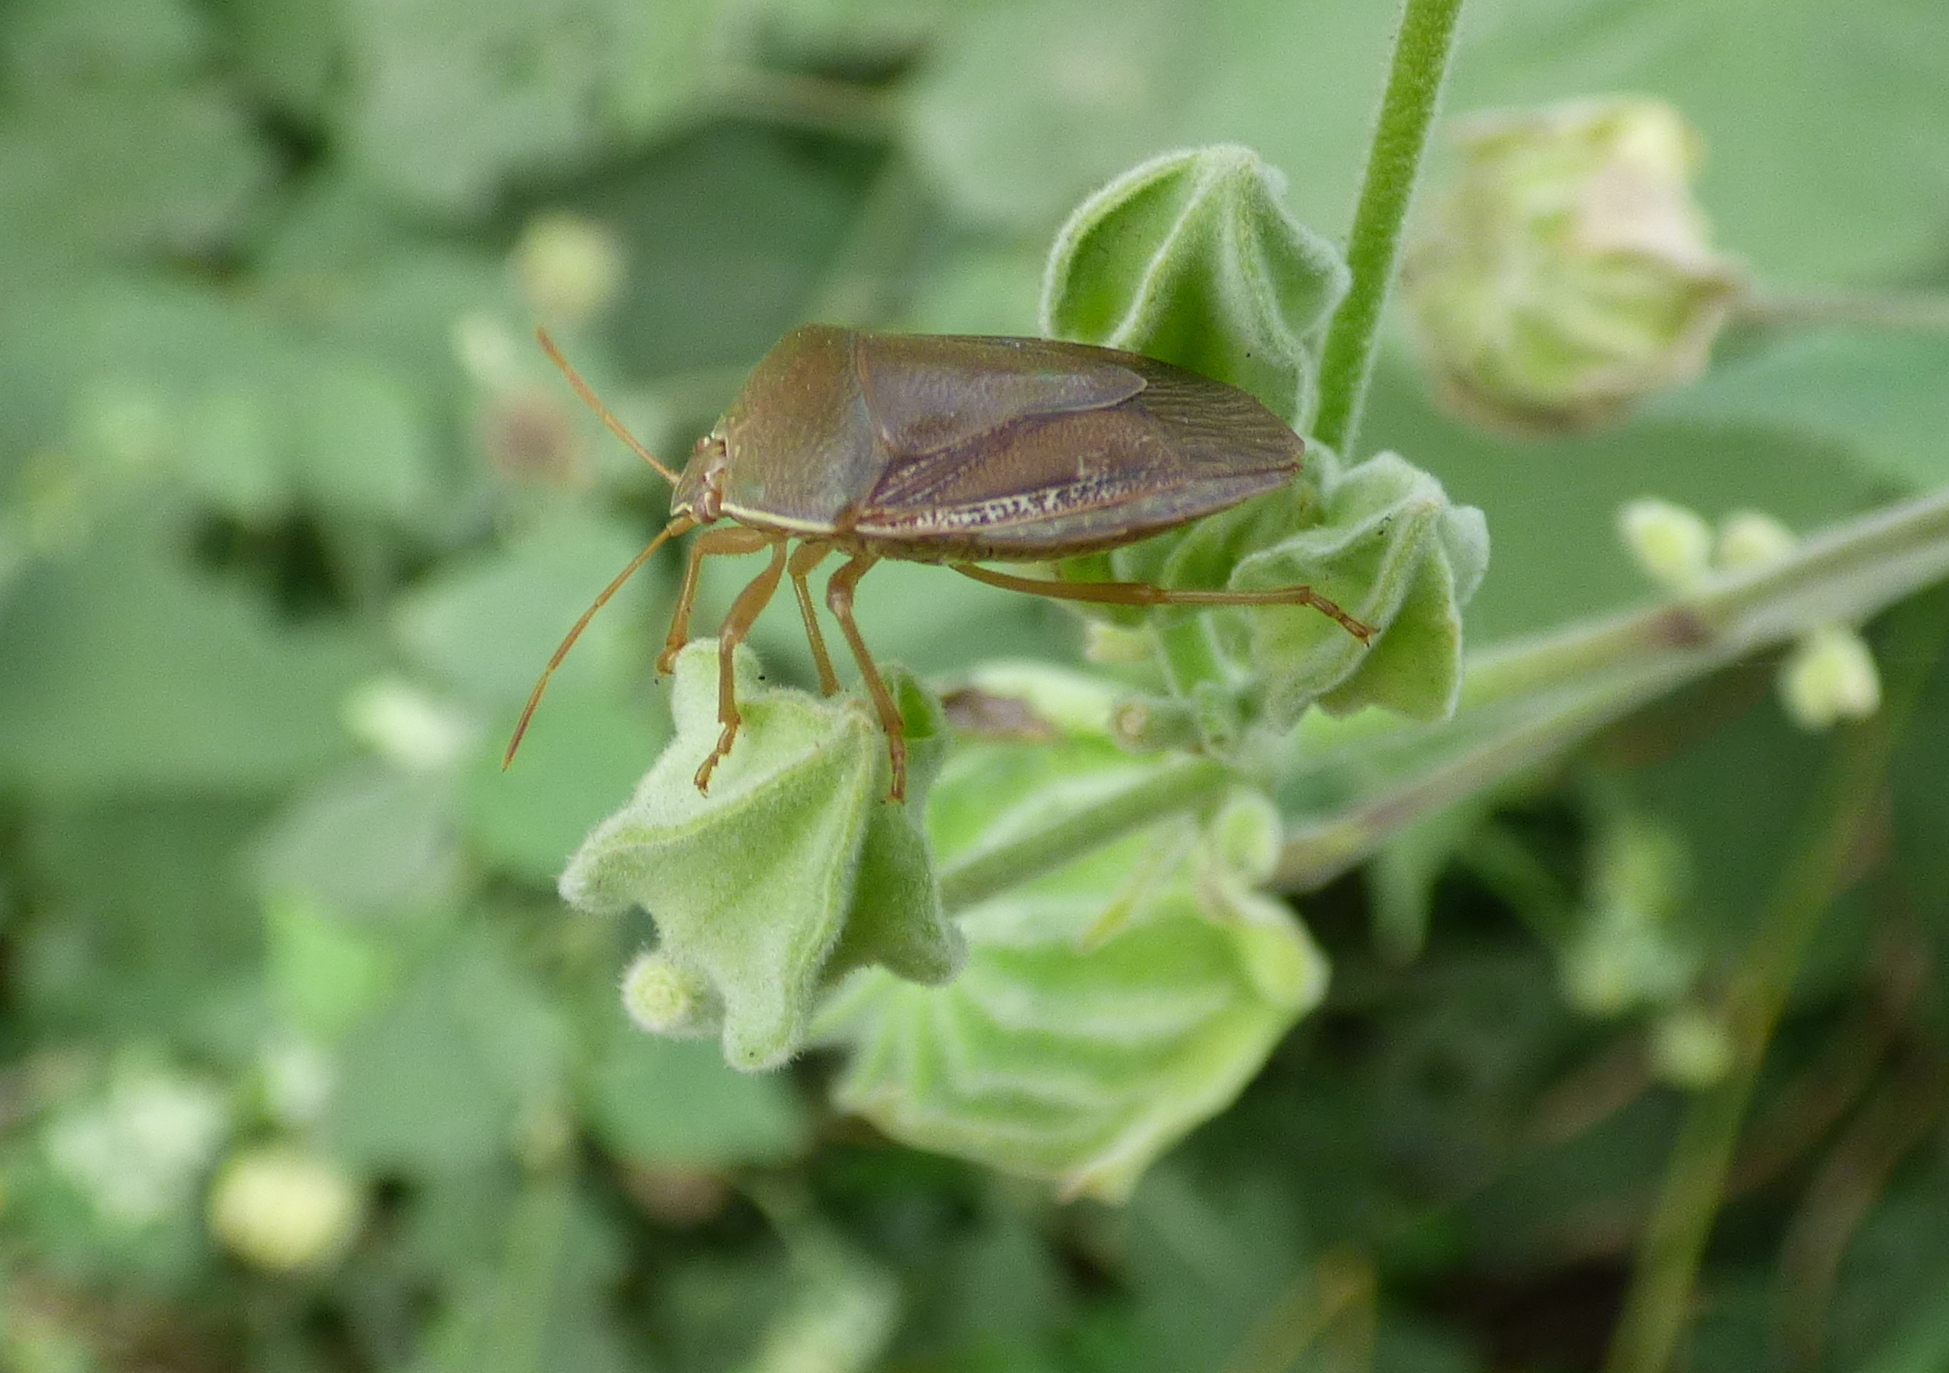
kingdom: Animalia
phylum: Arthropoda
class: Insecta
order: Hemiptera
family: Pentatomidae
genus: Edessa
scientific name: Edessa meditabunda
